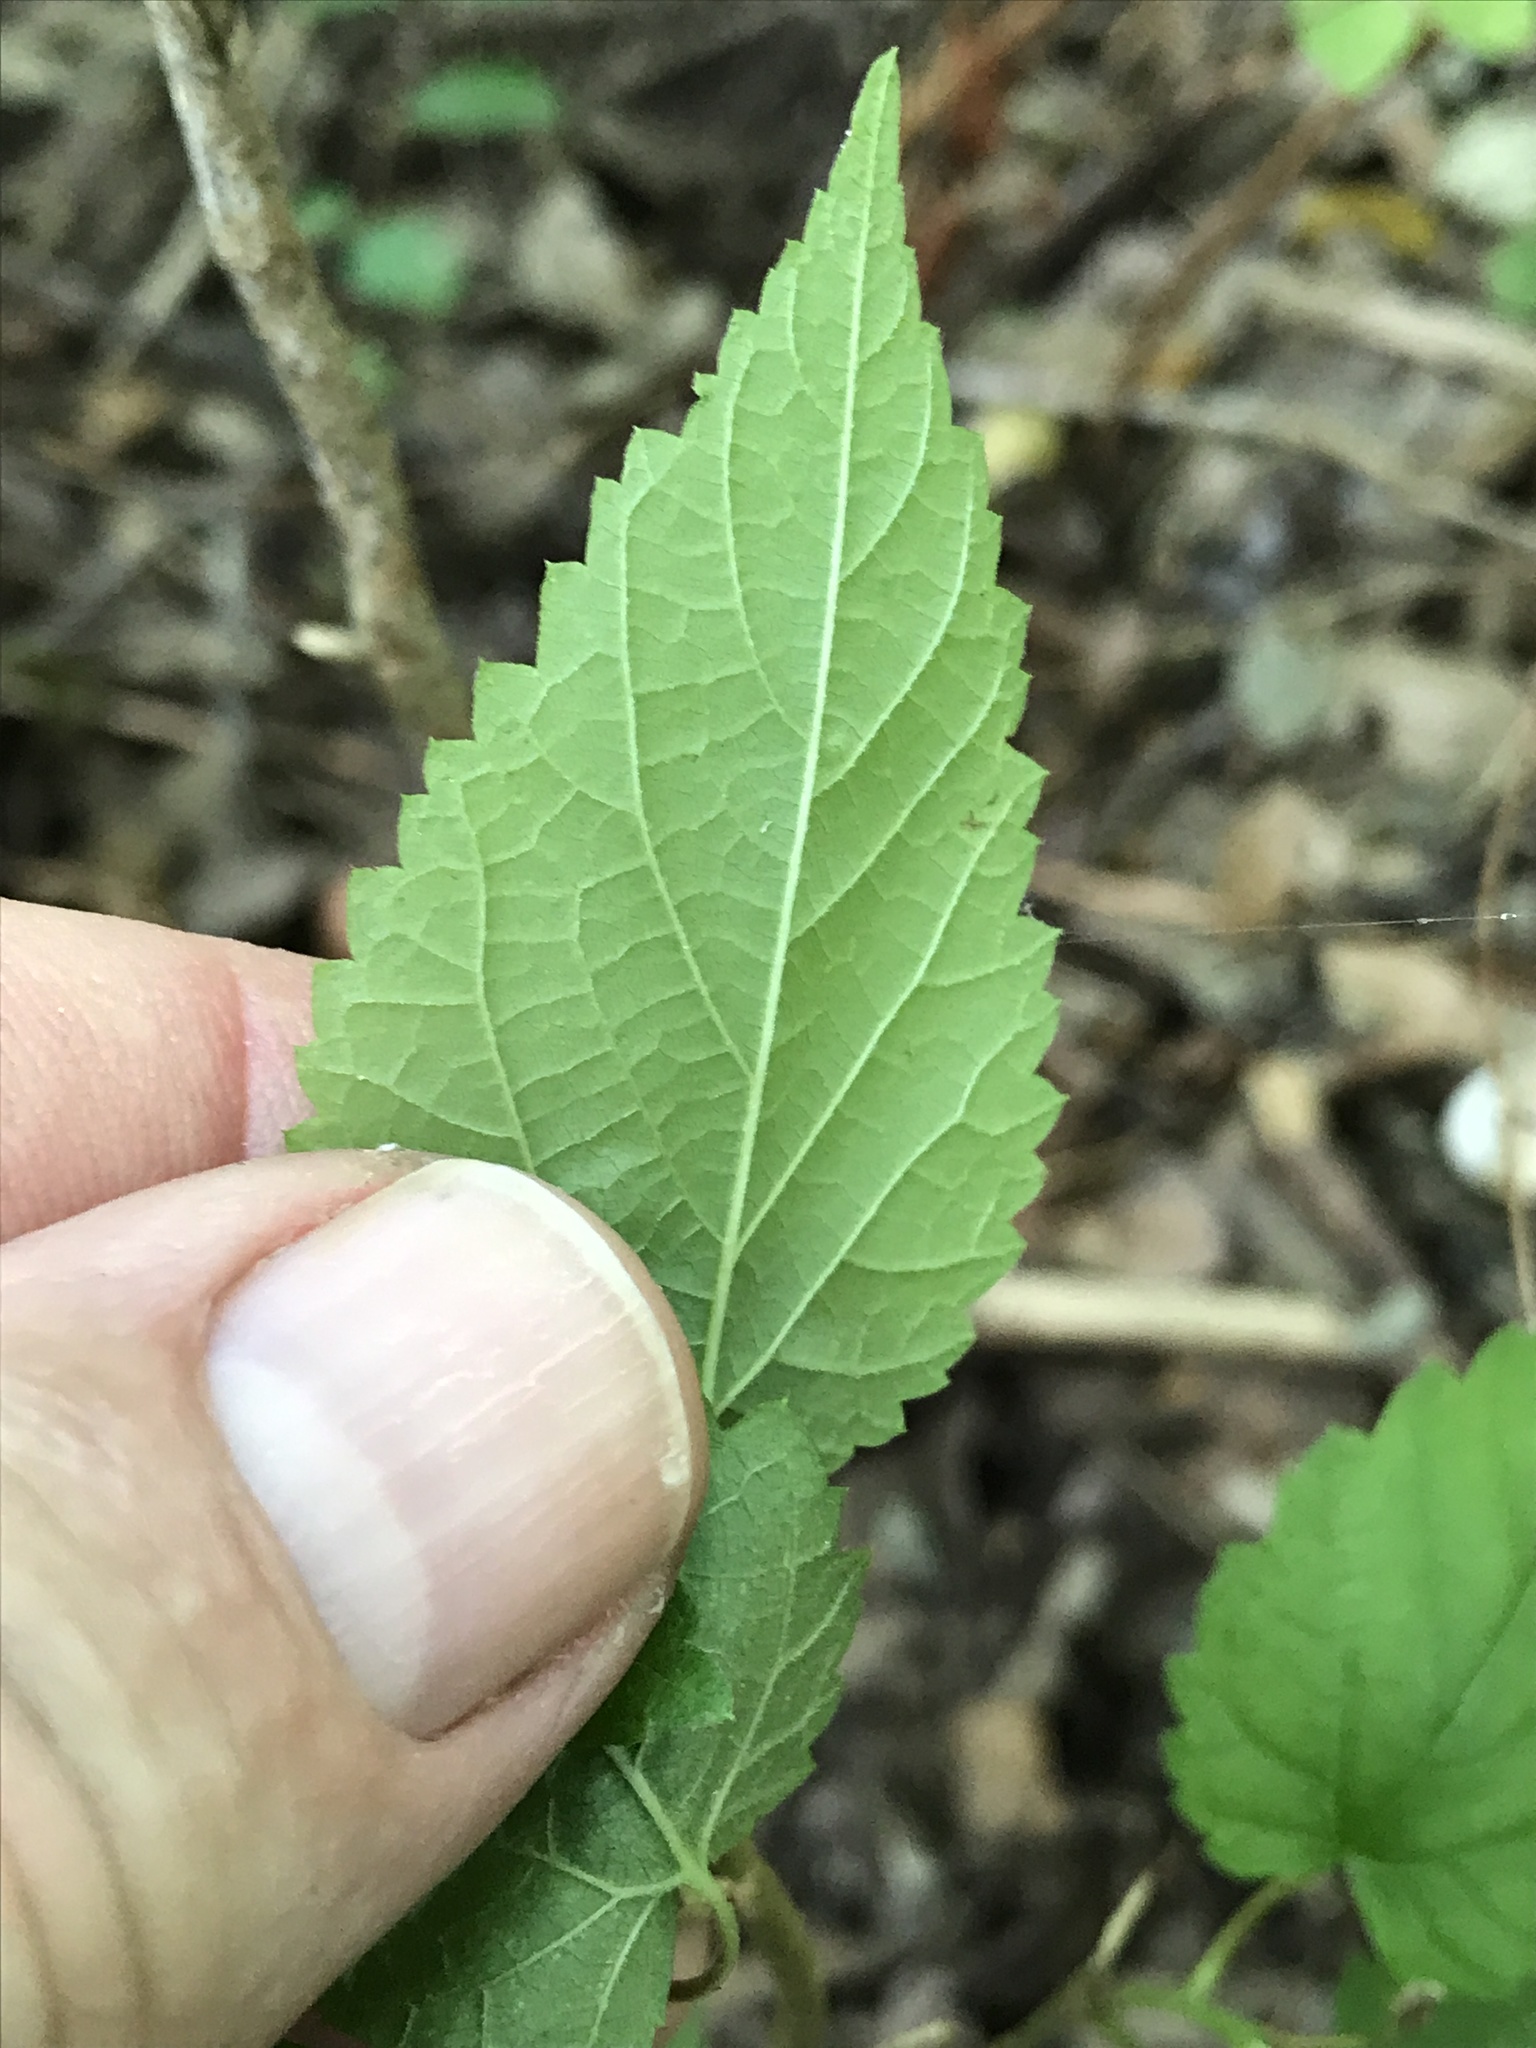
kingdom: Plantae
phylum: Tracheophyta
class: Magnoliopsida
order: Rosales
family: Moraceae
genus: Morus
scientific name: Morus microphylla
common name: Mexican mulberry
